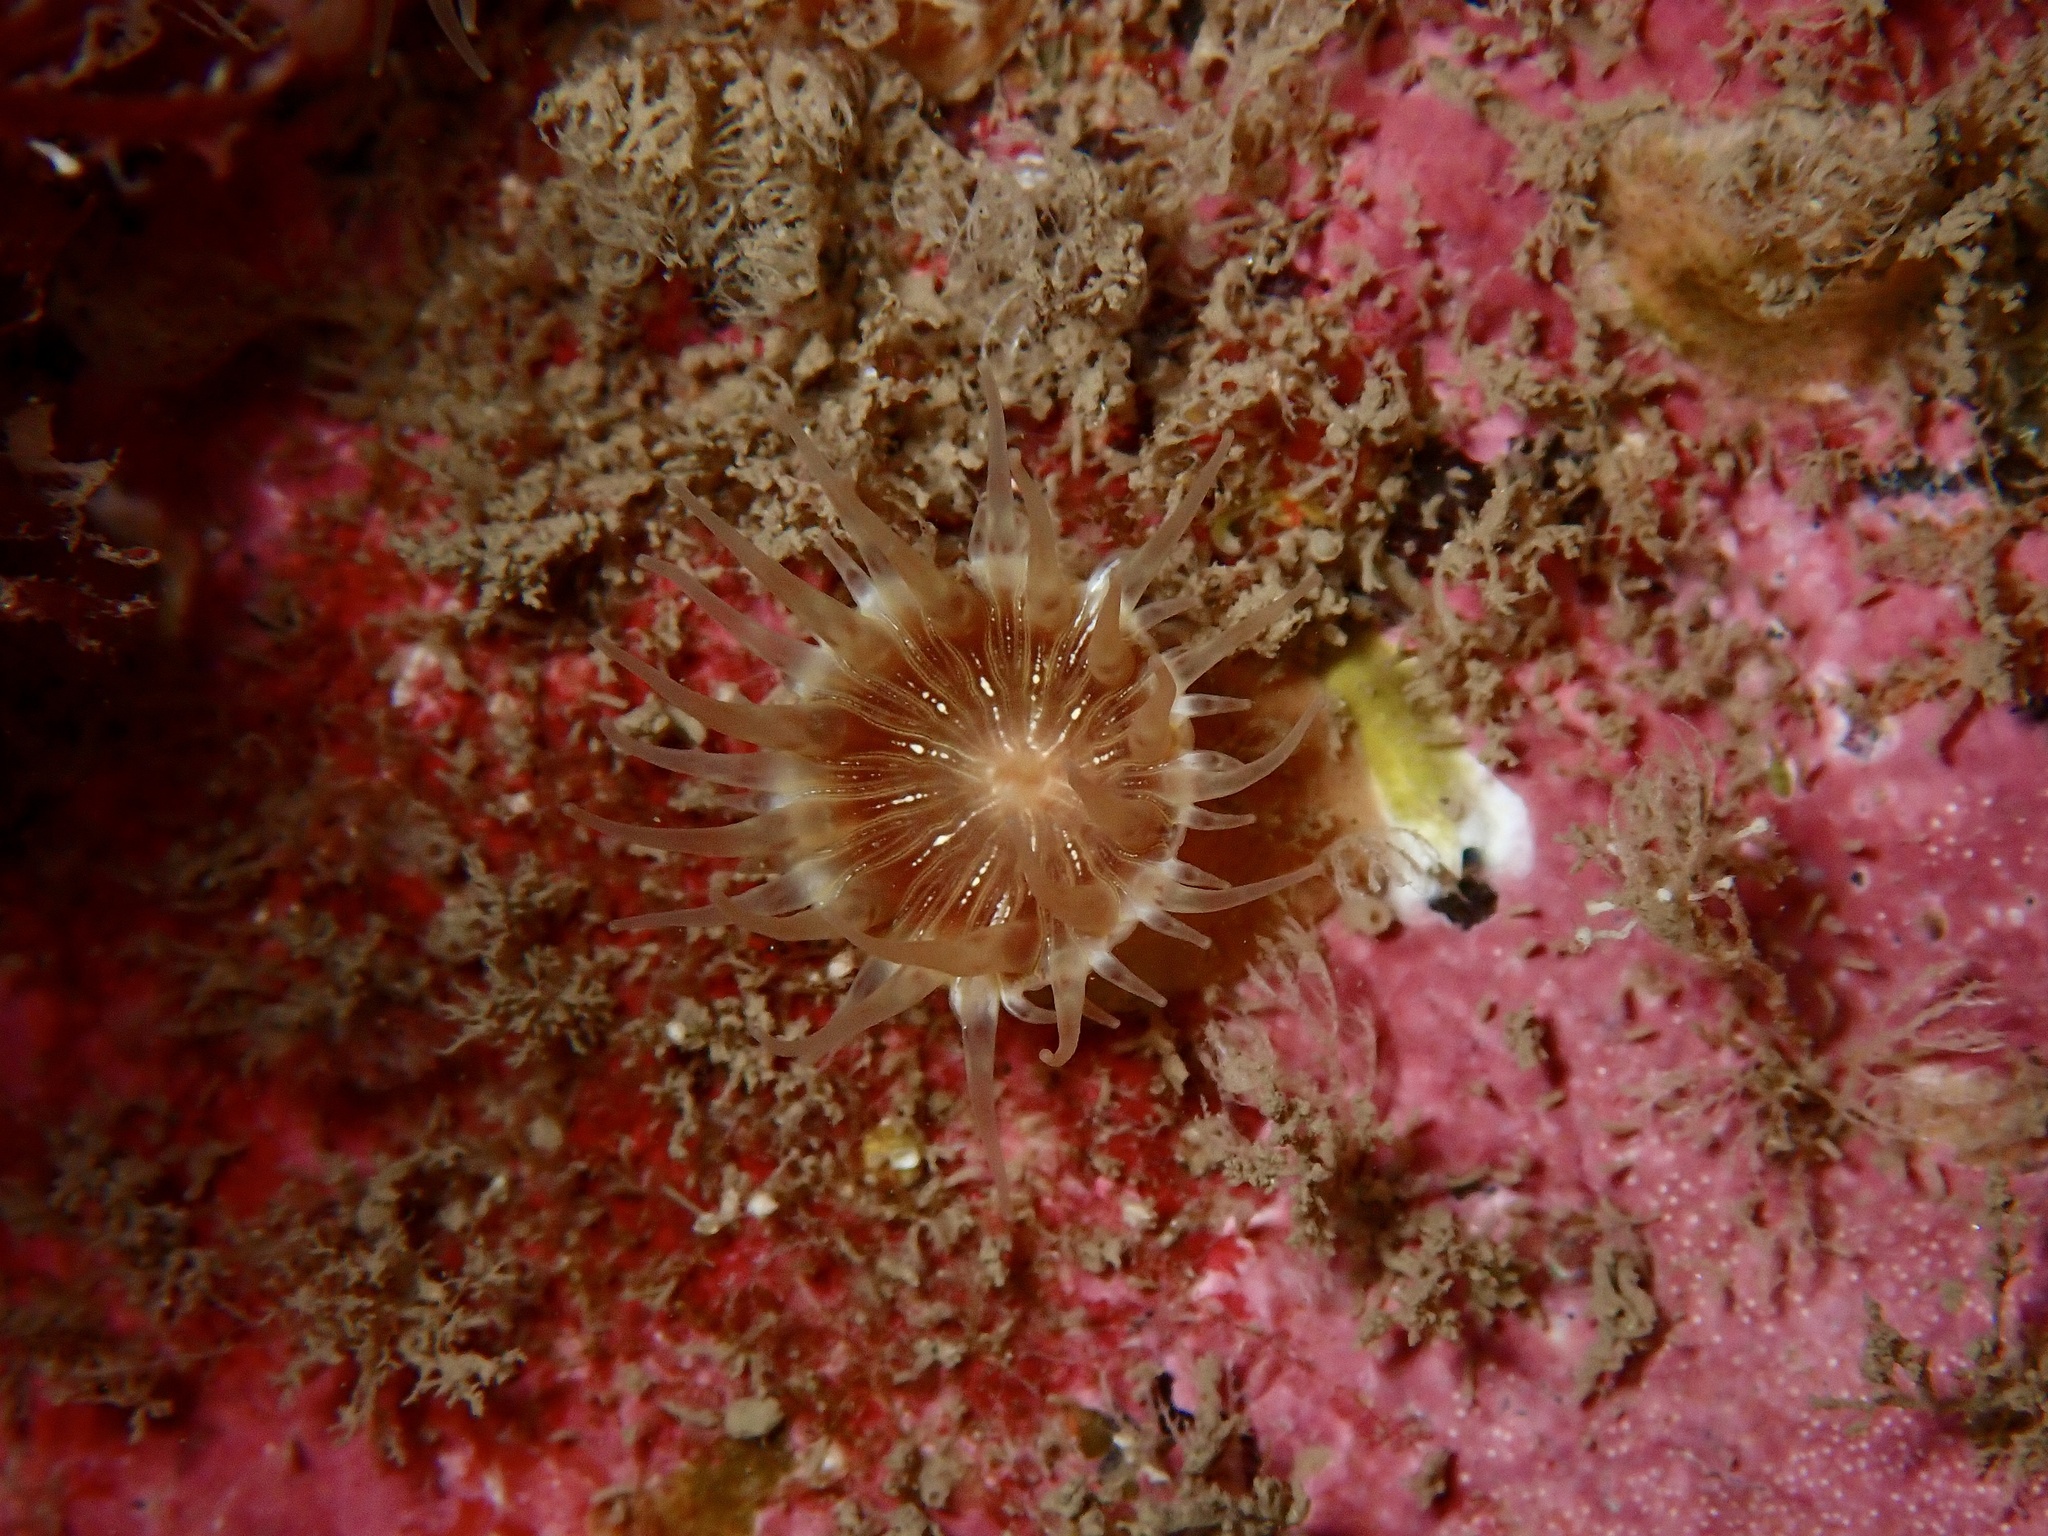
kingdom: Animalia
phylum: Cnidaria
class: Anthozoa
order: Actiniaria
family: Hormathiidae
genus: Hormathia
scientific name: Hormathia coronata
